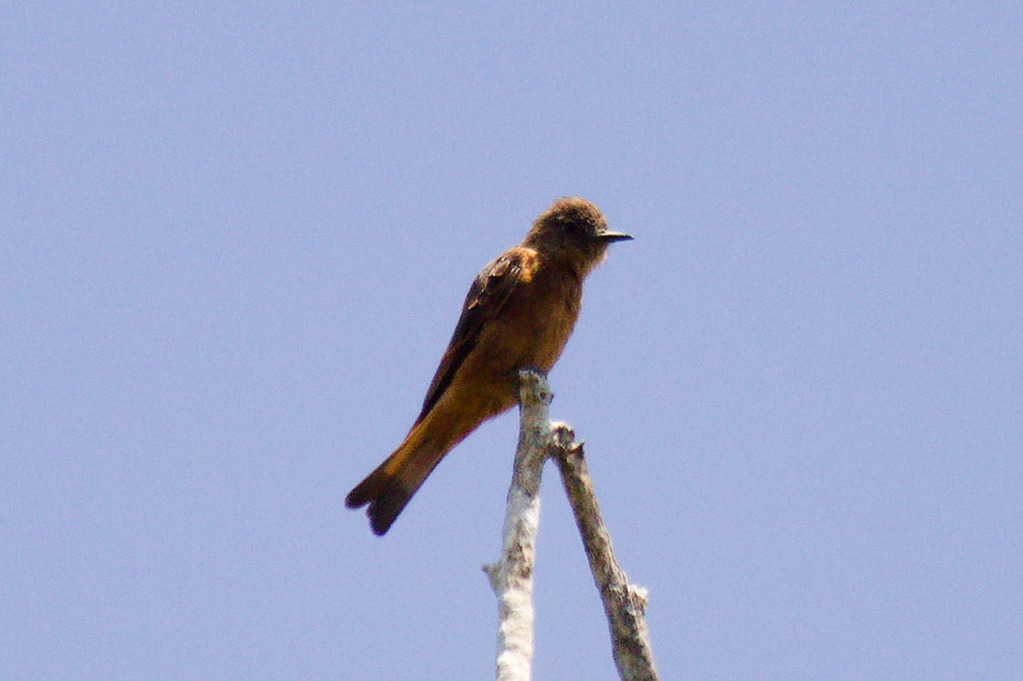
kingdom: Animalia
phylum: Chordata
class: Aves
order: Passeriformes
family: Tyrannidae
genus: Hirundinea
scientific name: Hirundinea ferruginea
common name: Cliff flycatcher
